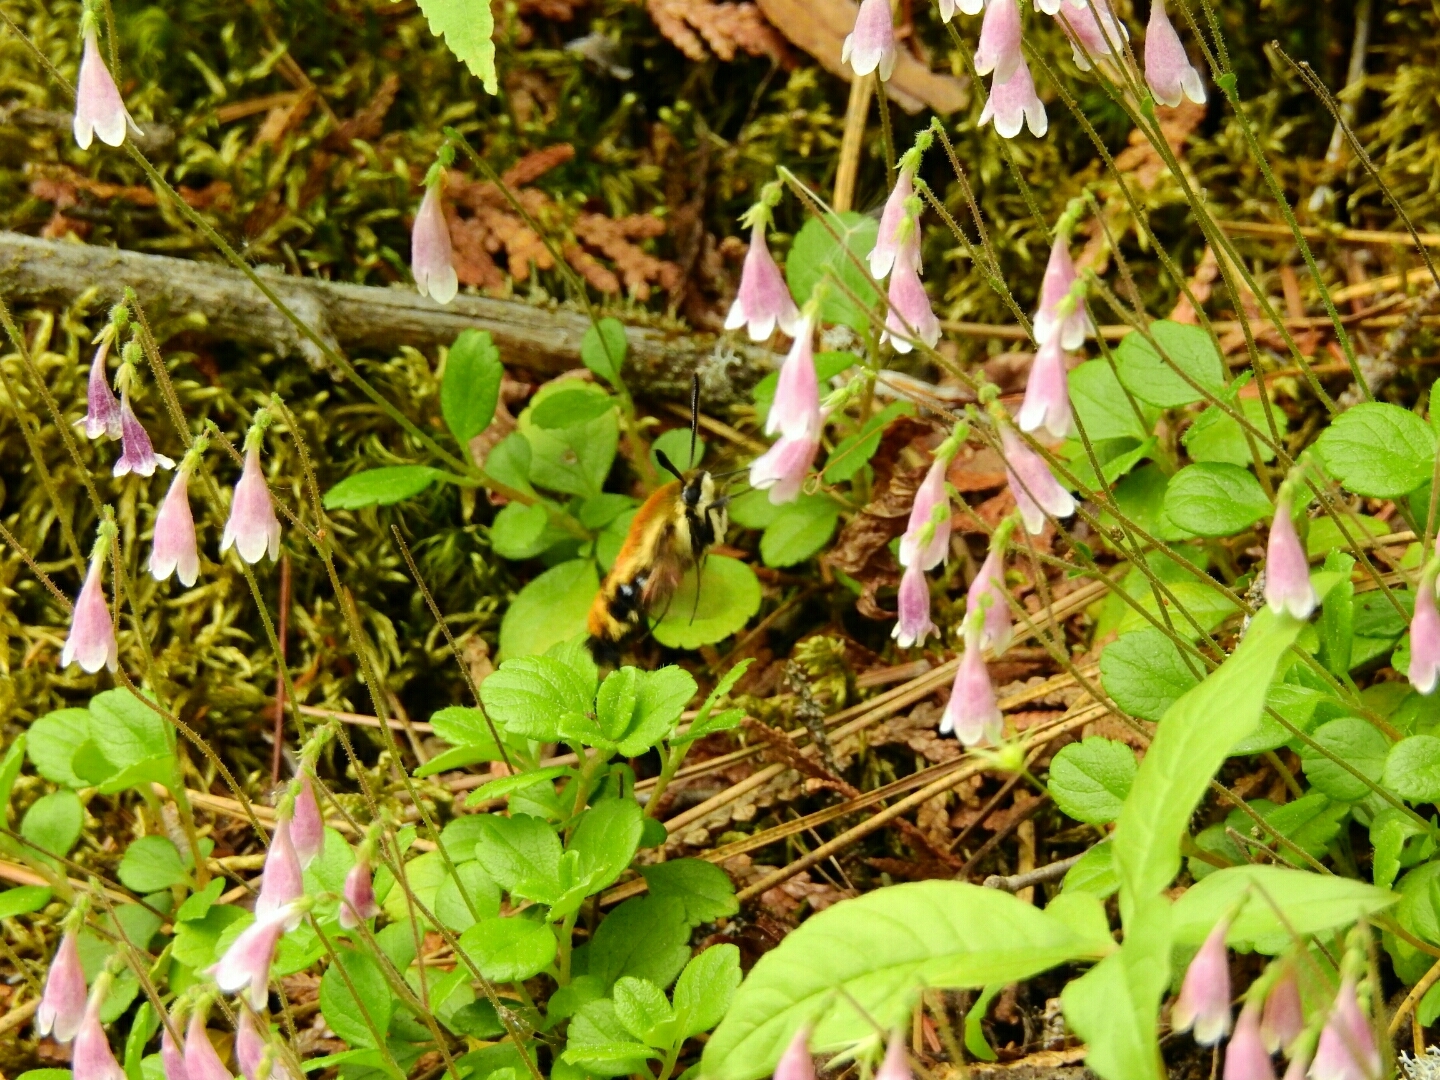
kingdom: Plantae
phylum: Tracheophyta
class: Magnoliopsida
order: Dipsacales
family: Caprifoliaceae
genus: Linnaea
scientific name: Linnaea borealis
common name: Twinflower
